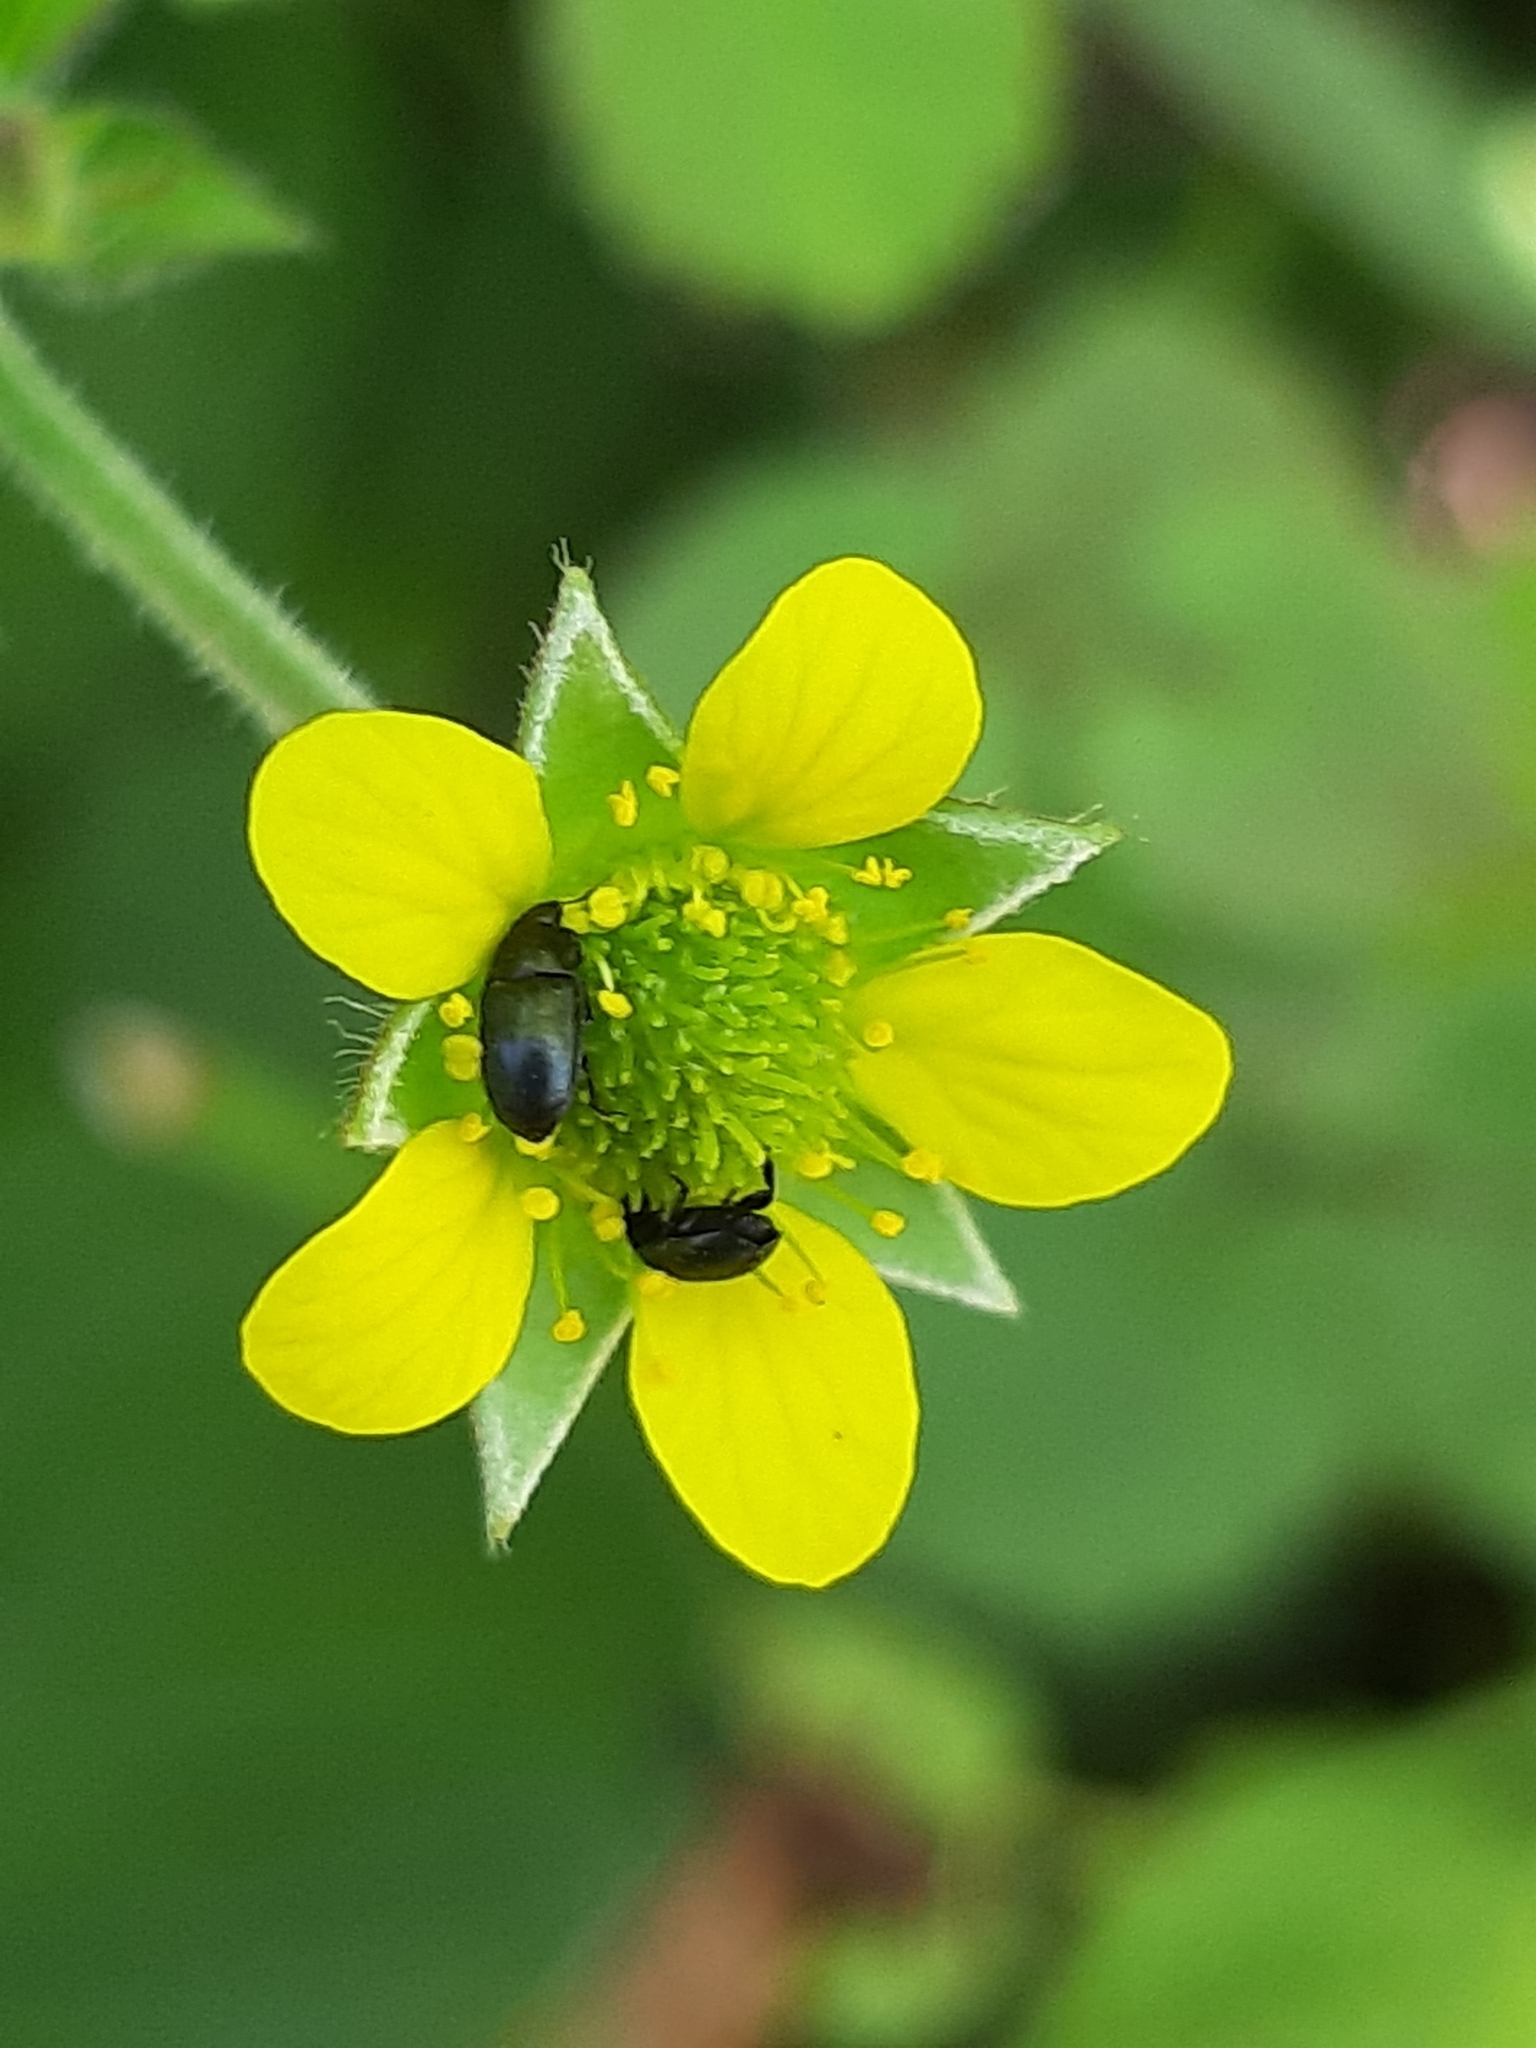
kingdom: Plantae
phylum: Tracheophyta
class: Magnoliopsida
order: Rosales
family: Rosaceae
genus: Geum
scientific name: Geum urbanum
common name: Wood avens
